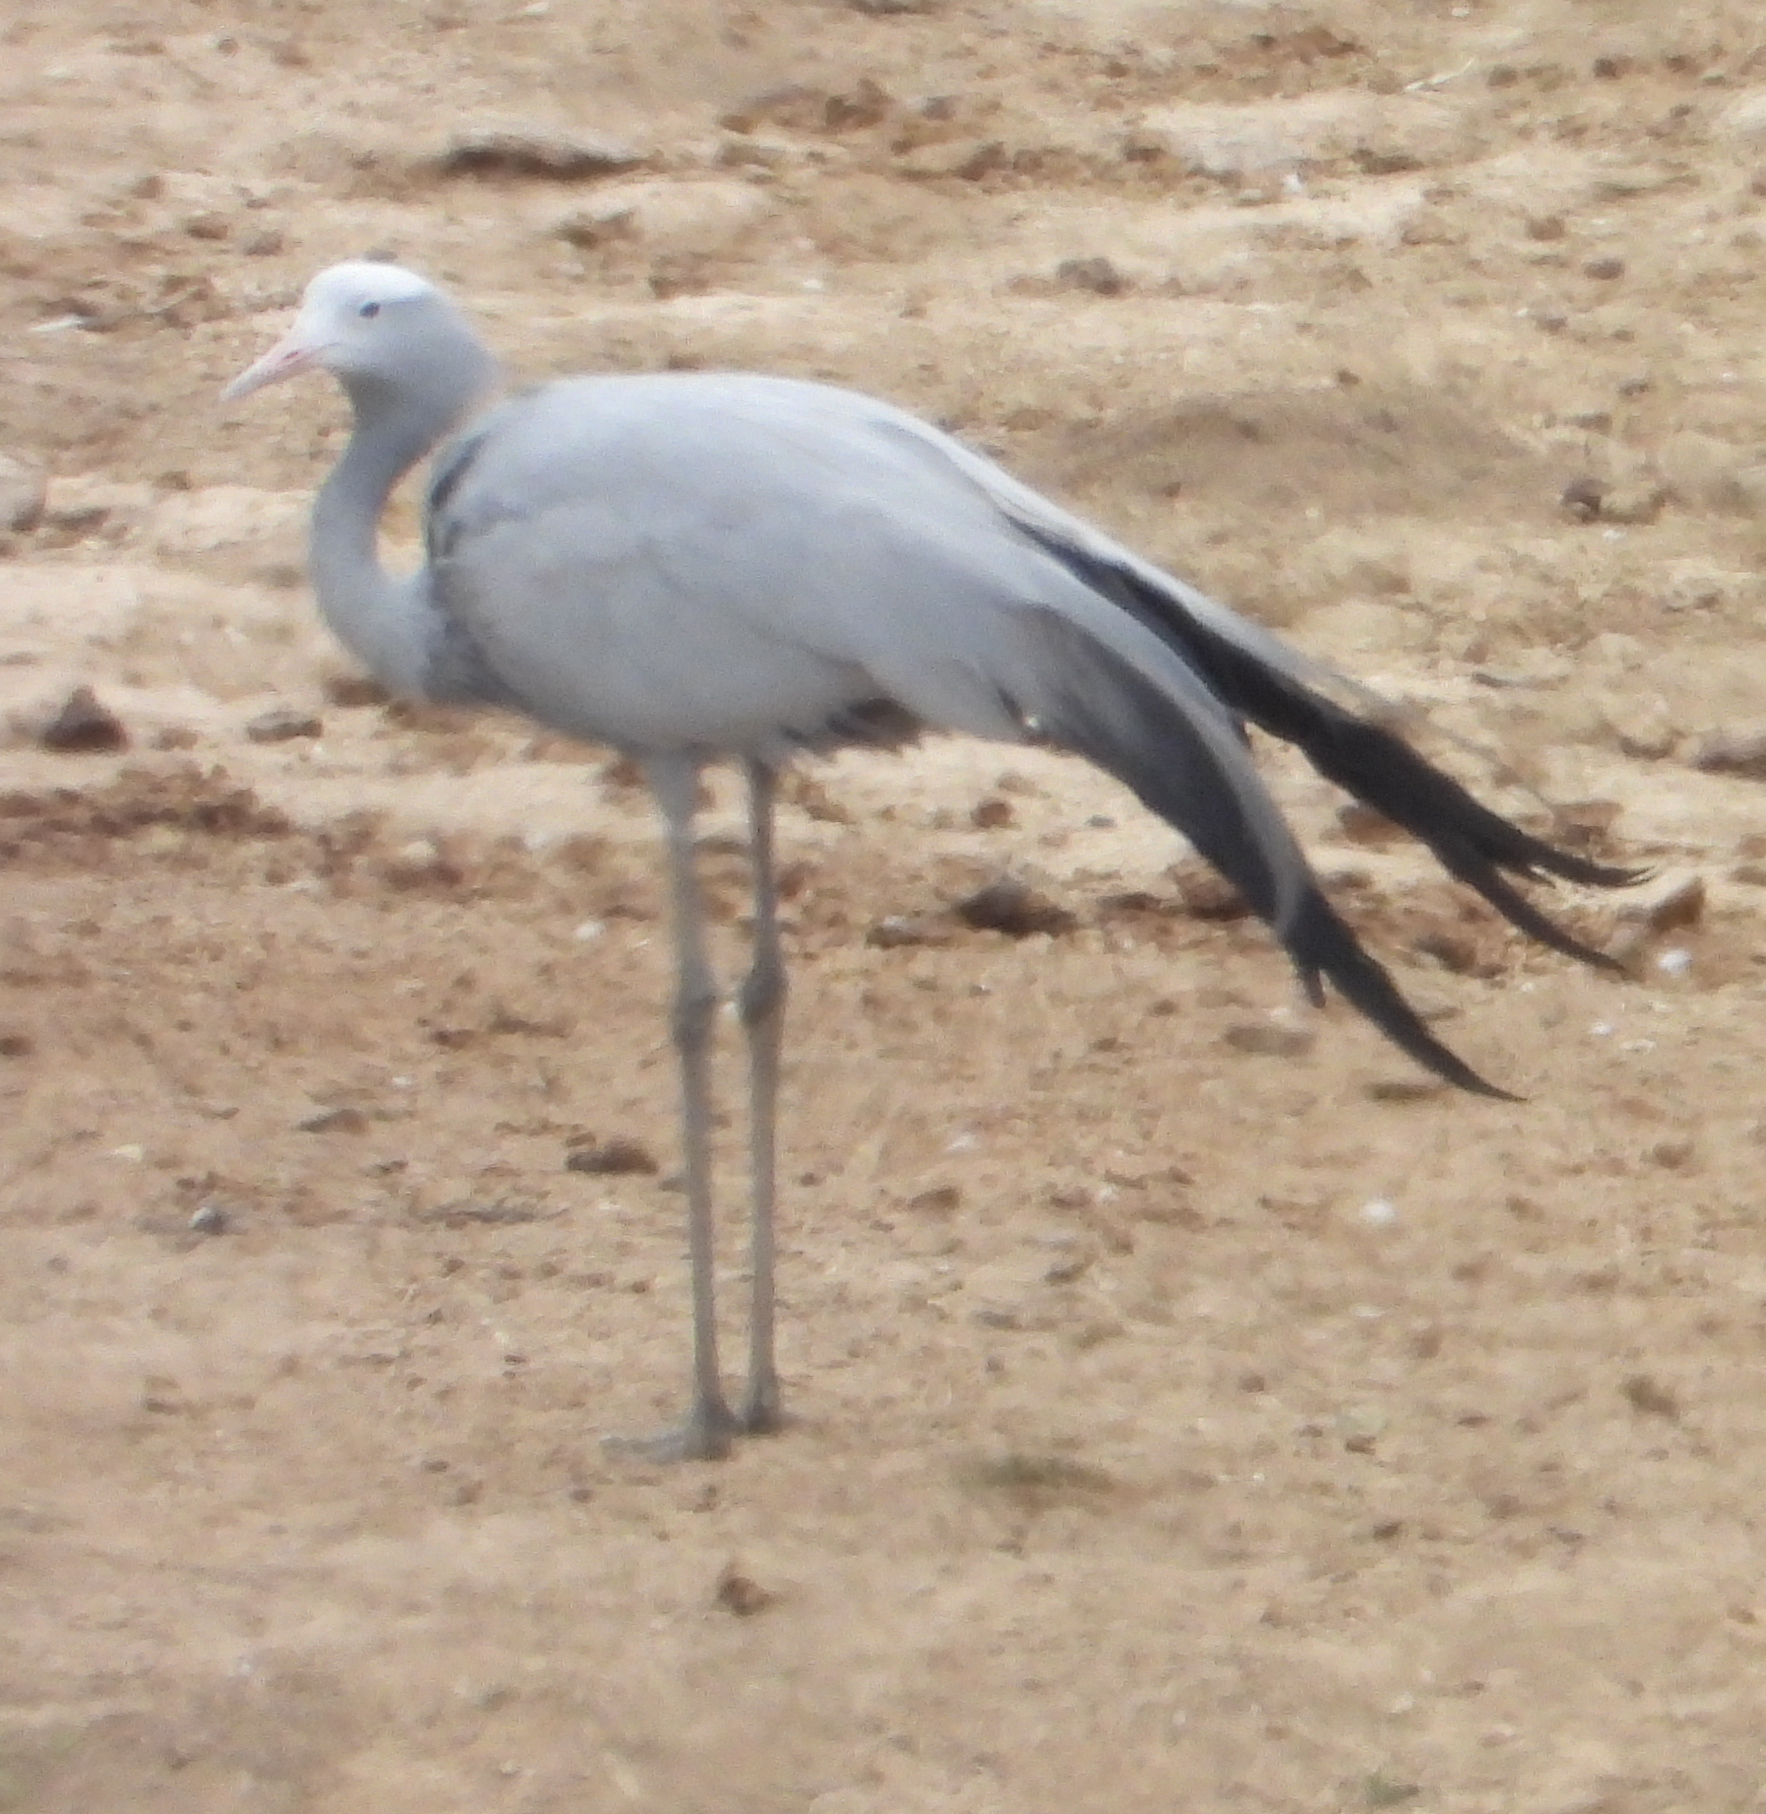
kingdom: Animalia
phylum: Chordata
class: Aves
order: Gruiformes
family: Gruidae
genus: Anthropoides
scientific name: Anthropoides paradiseus
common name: Blue crane
